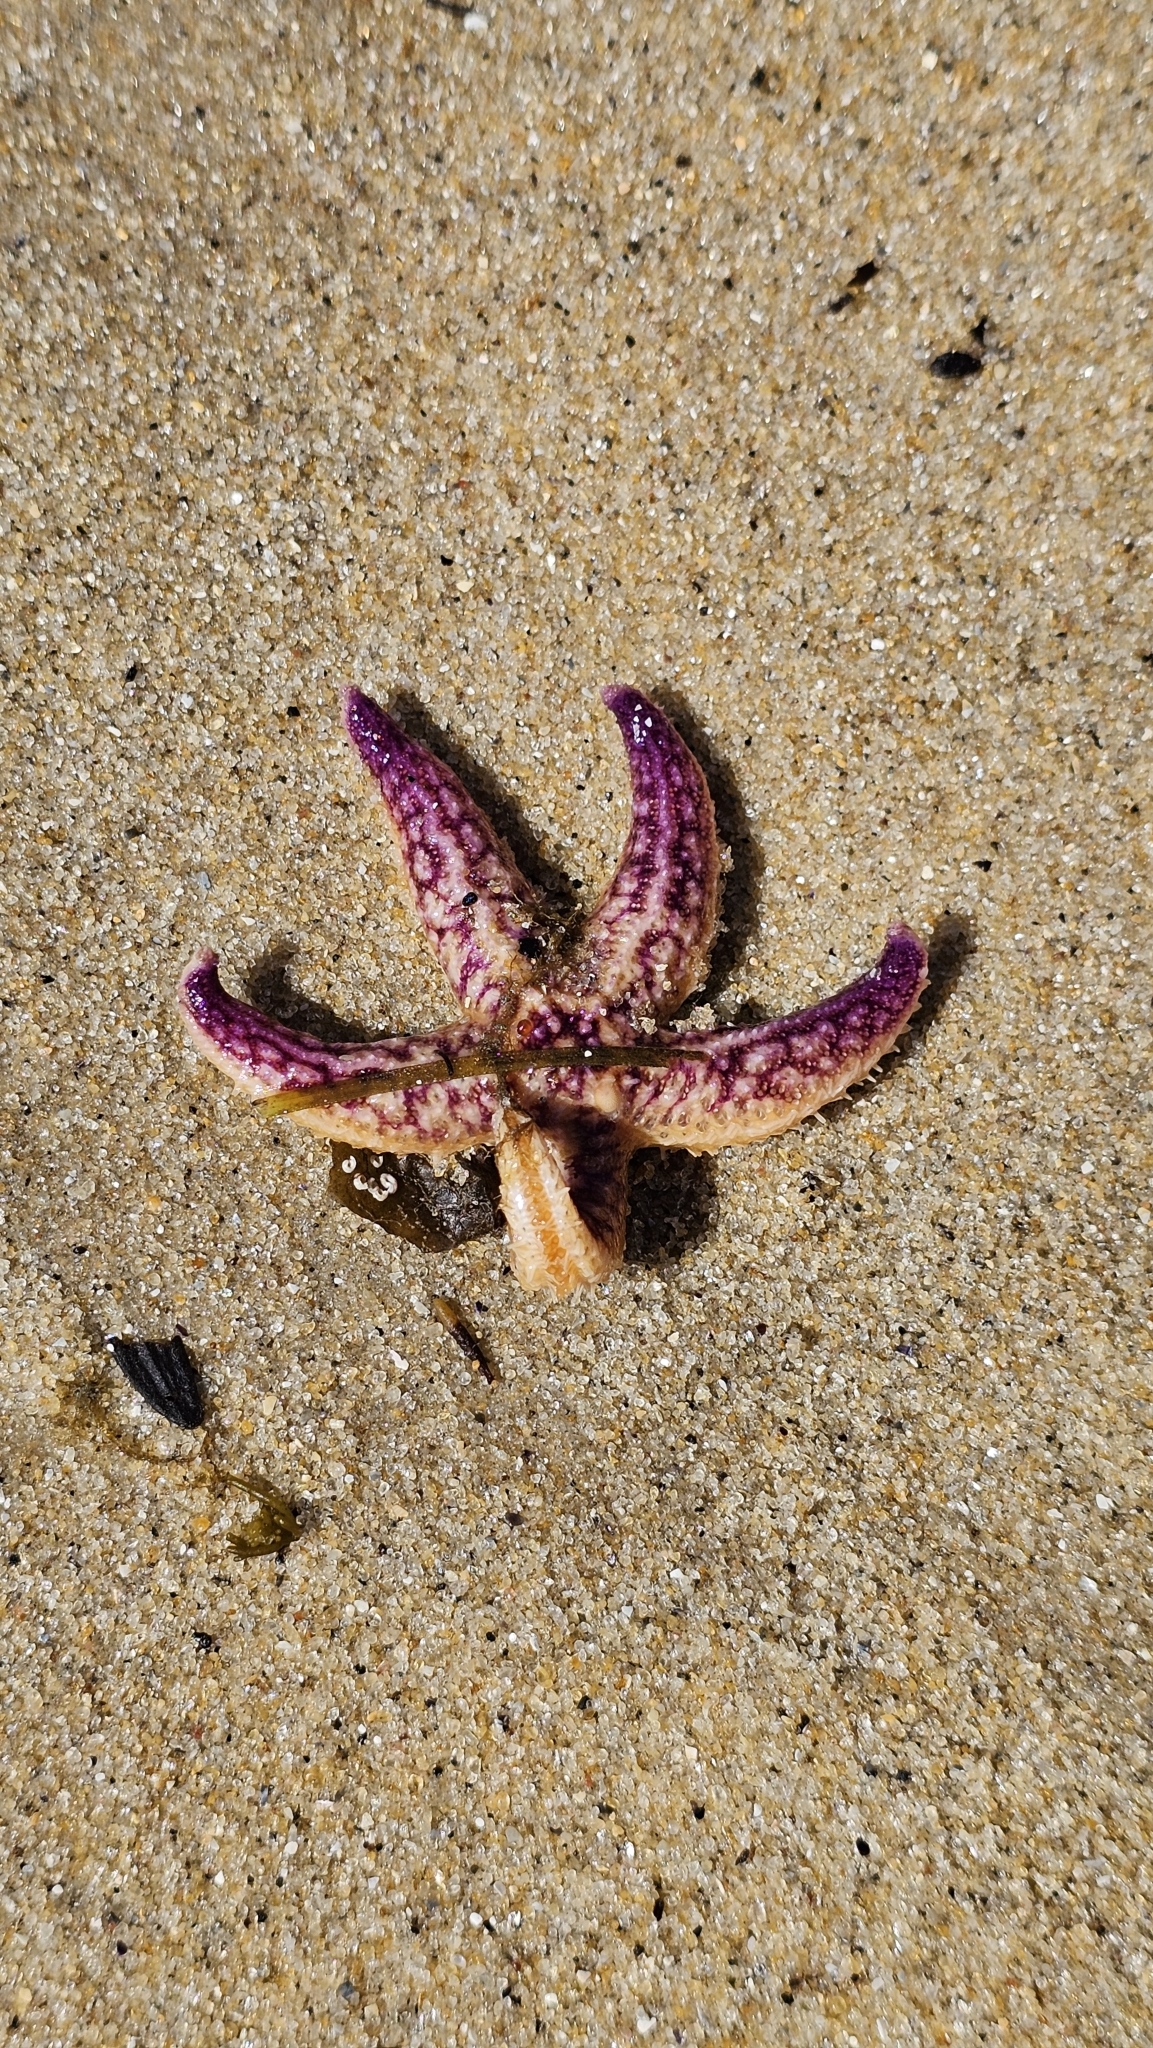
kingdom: Animalia
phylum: Echinodermata
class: Asteroidea
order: Forcipulatida
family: Asteriidae
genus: Asterias
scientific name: Asterias amurensis
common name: Flat-bottomed star
